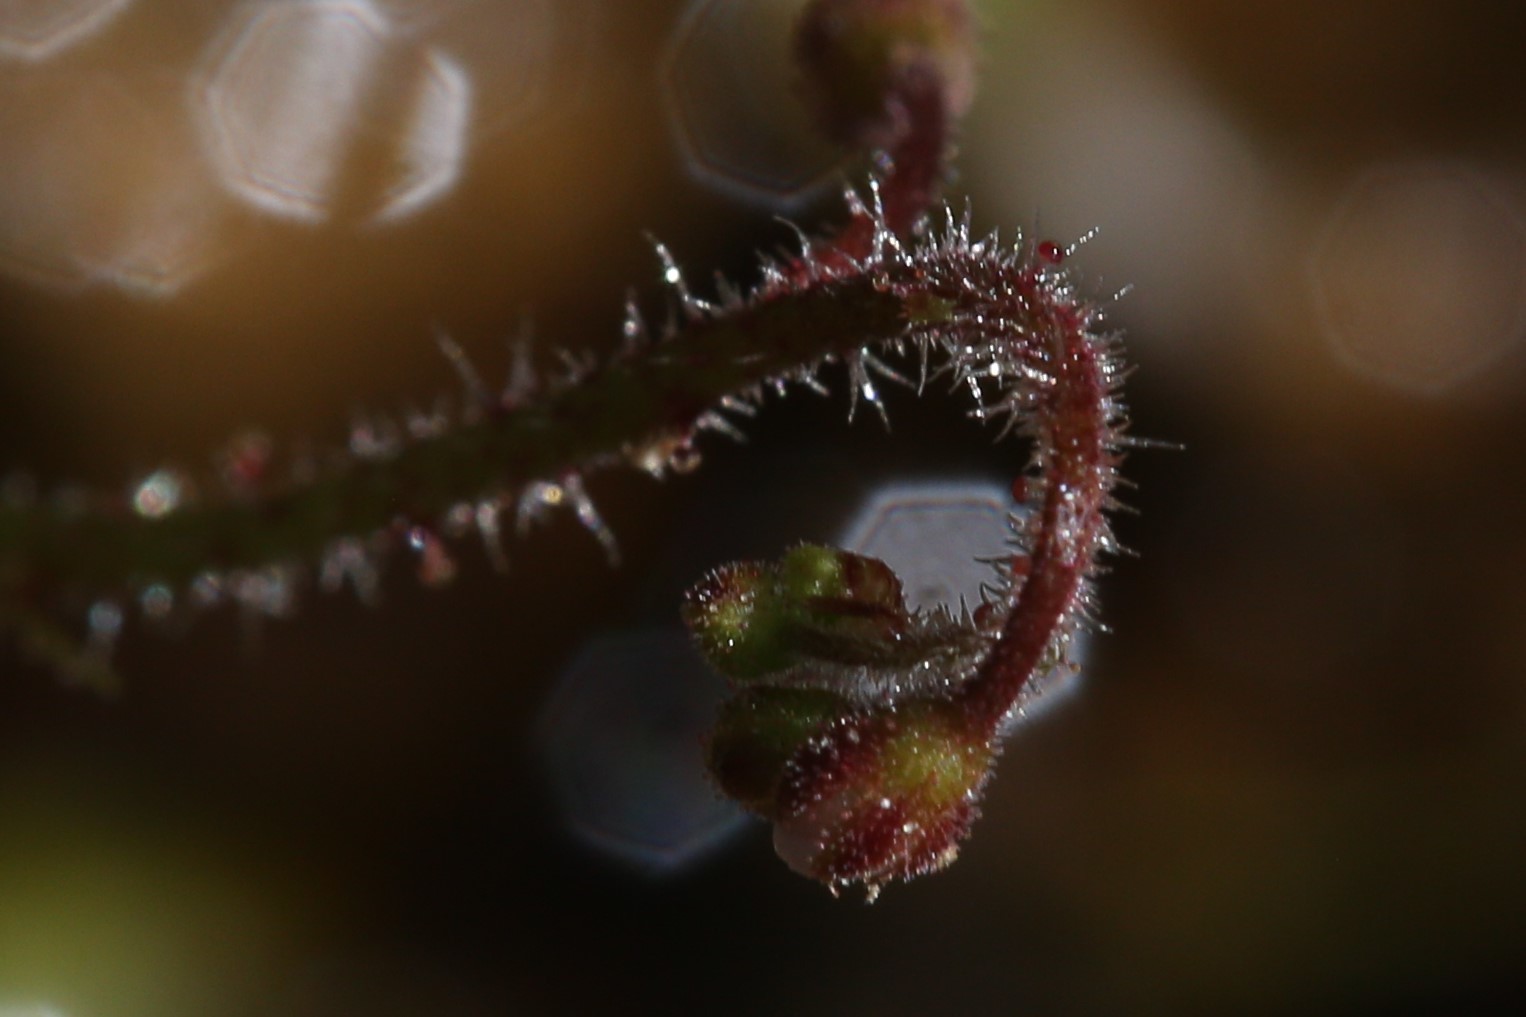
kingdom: Plantae
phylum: Tracheophyta
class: Magnoliopsida
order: Caryophyllales
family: Droseraceae
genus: Drosera
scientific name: Drosera aquatica
